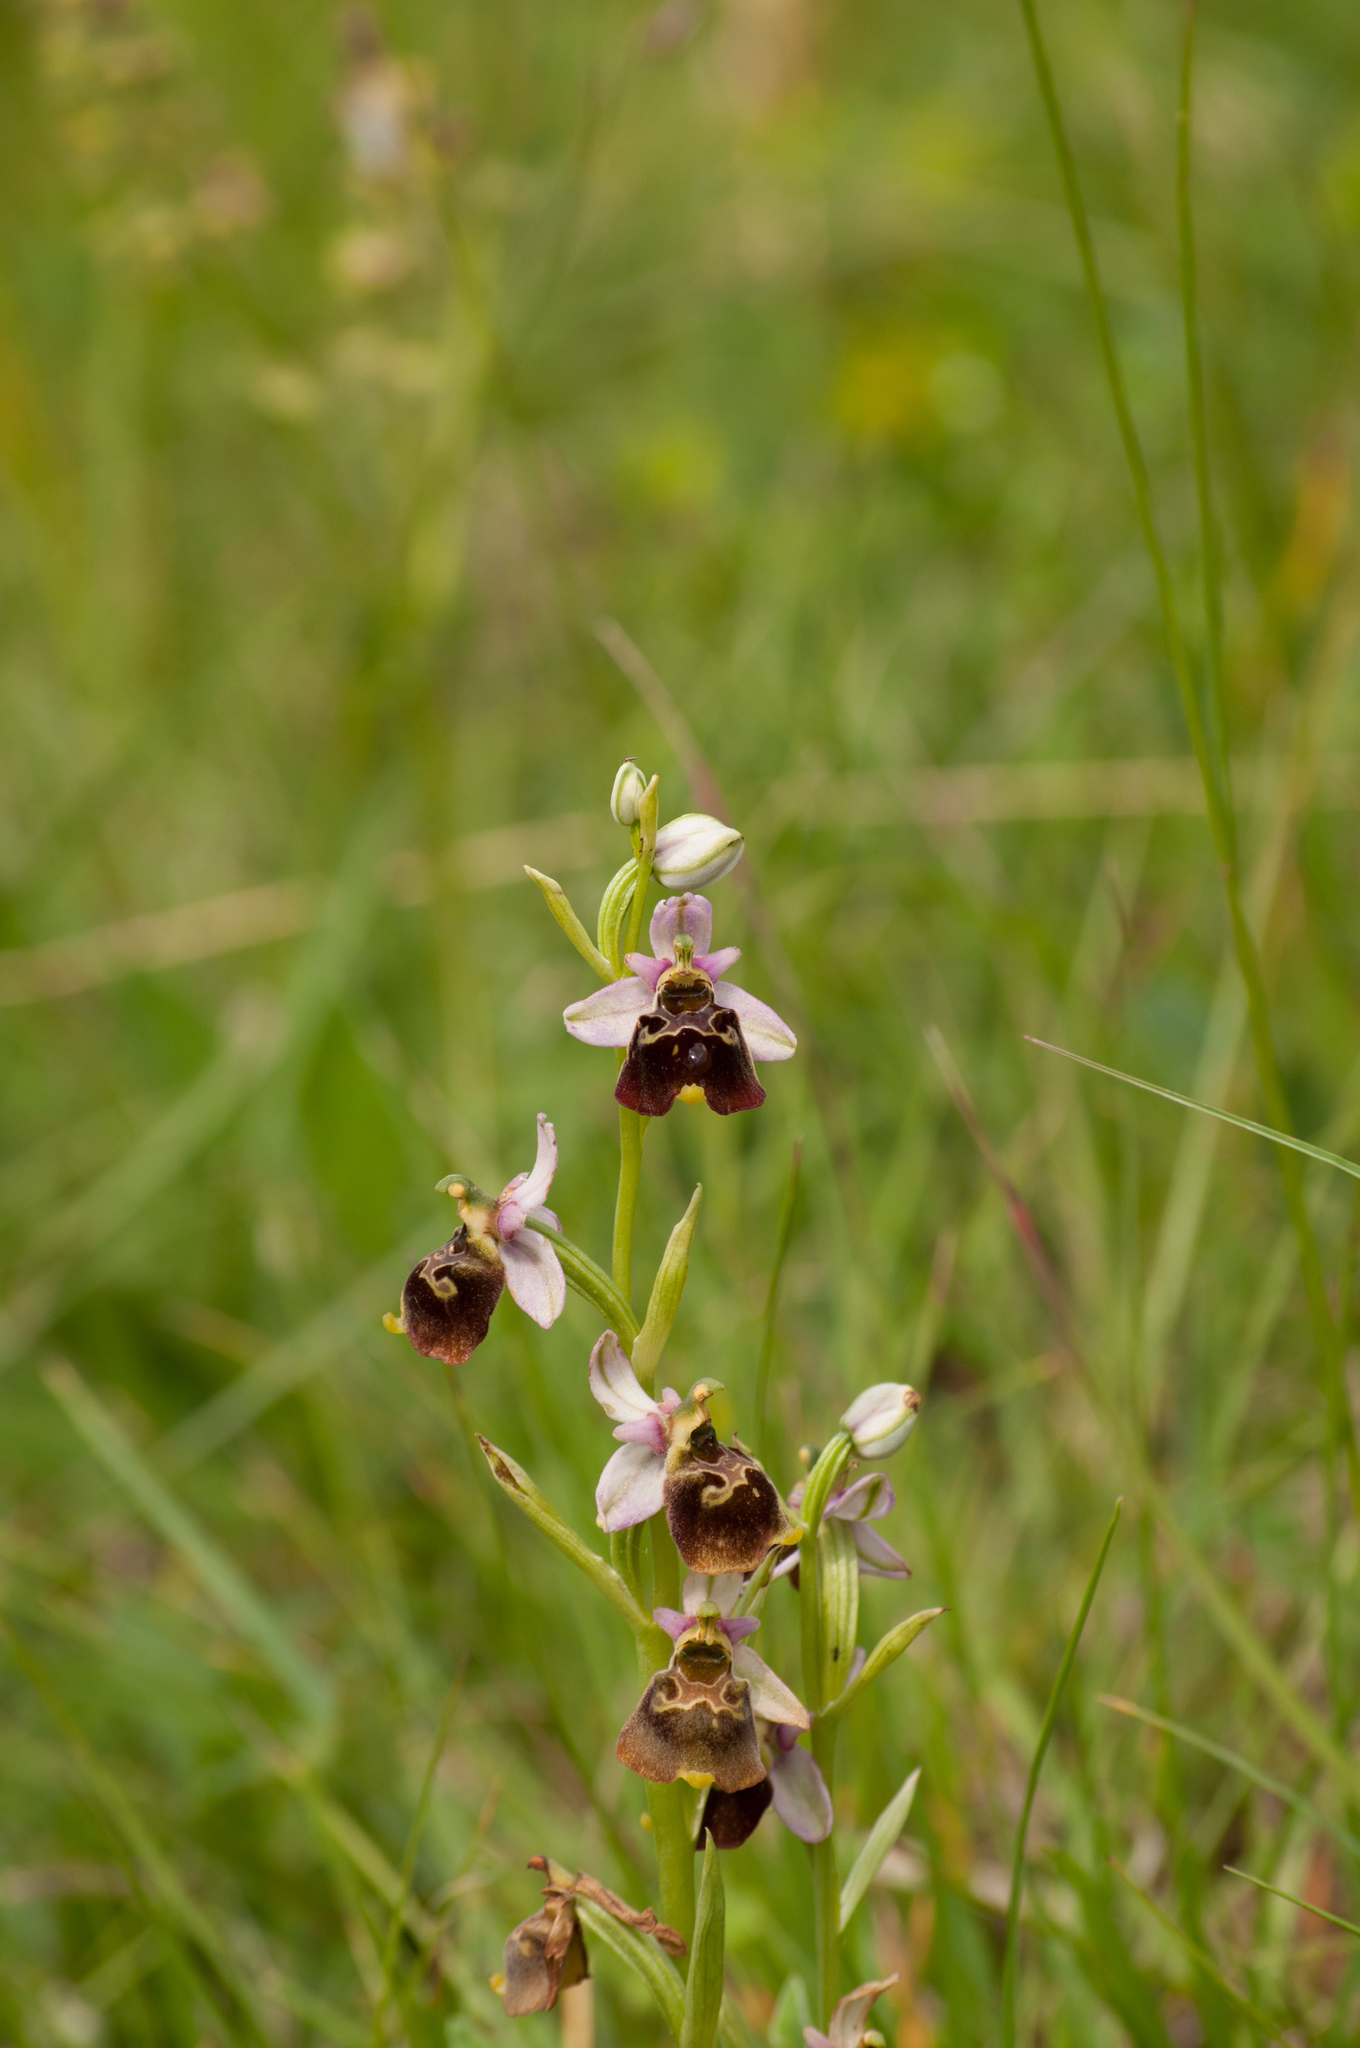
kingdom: Plantae
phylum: Tracheophyta
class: Liliopsida
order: Asparagales
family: Orchidaceae
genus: Ophrys
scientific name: Ophrys holosericea
